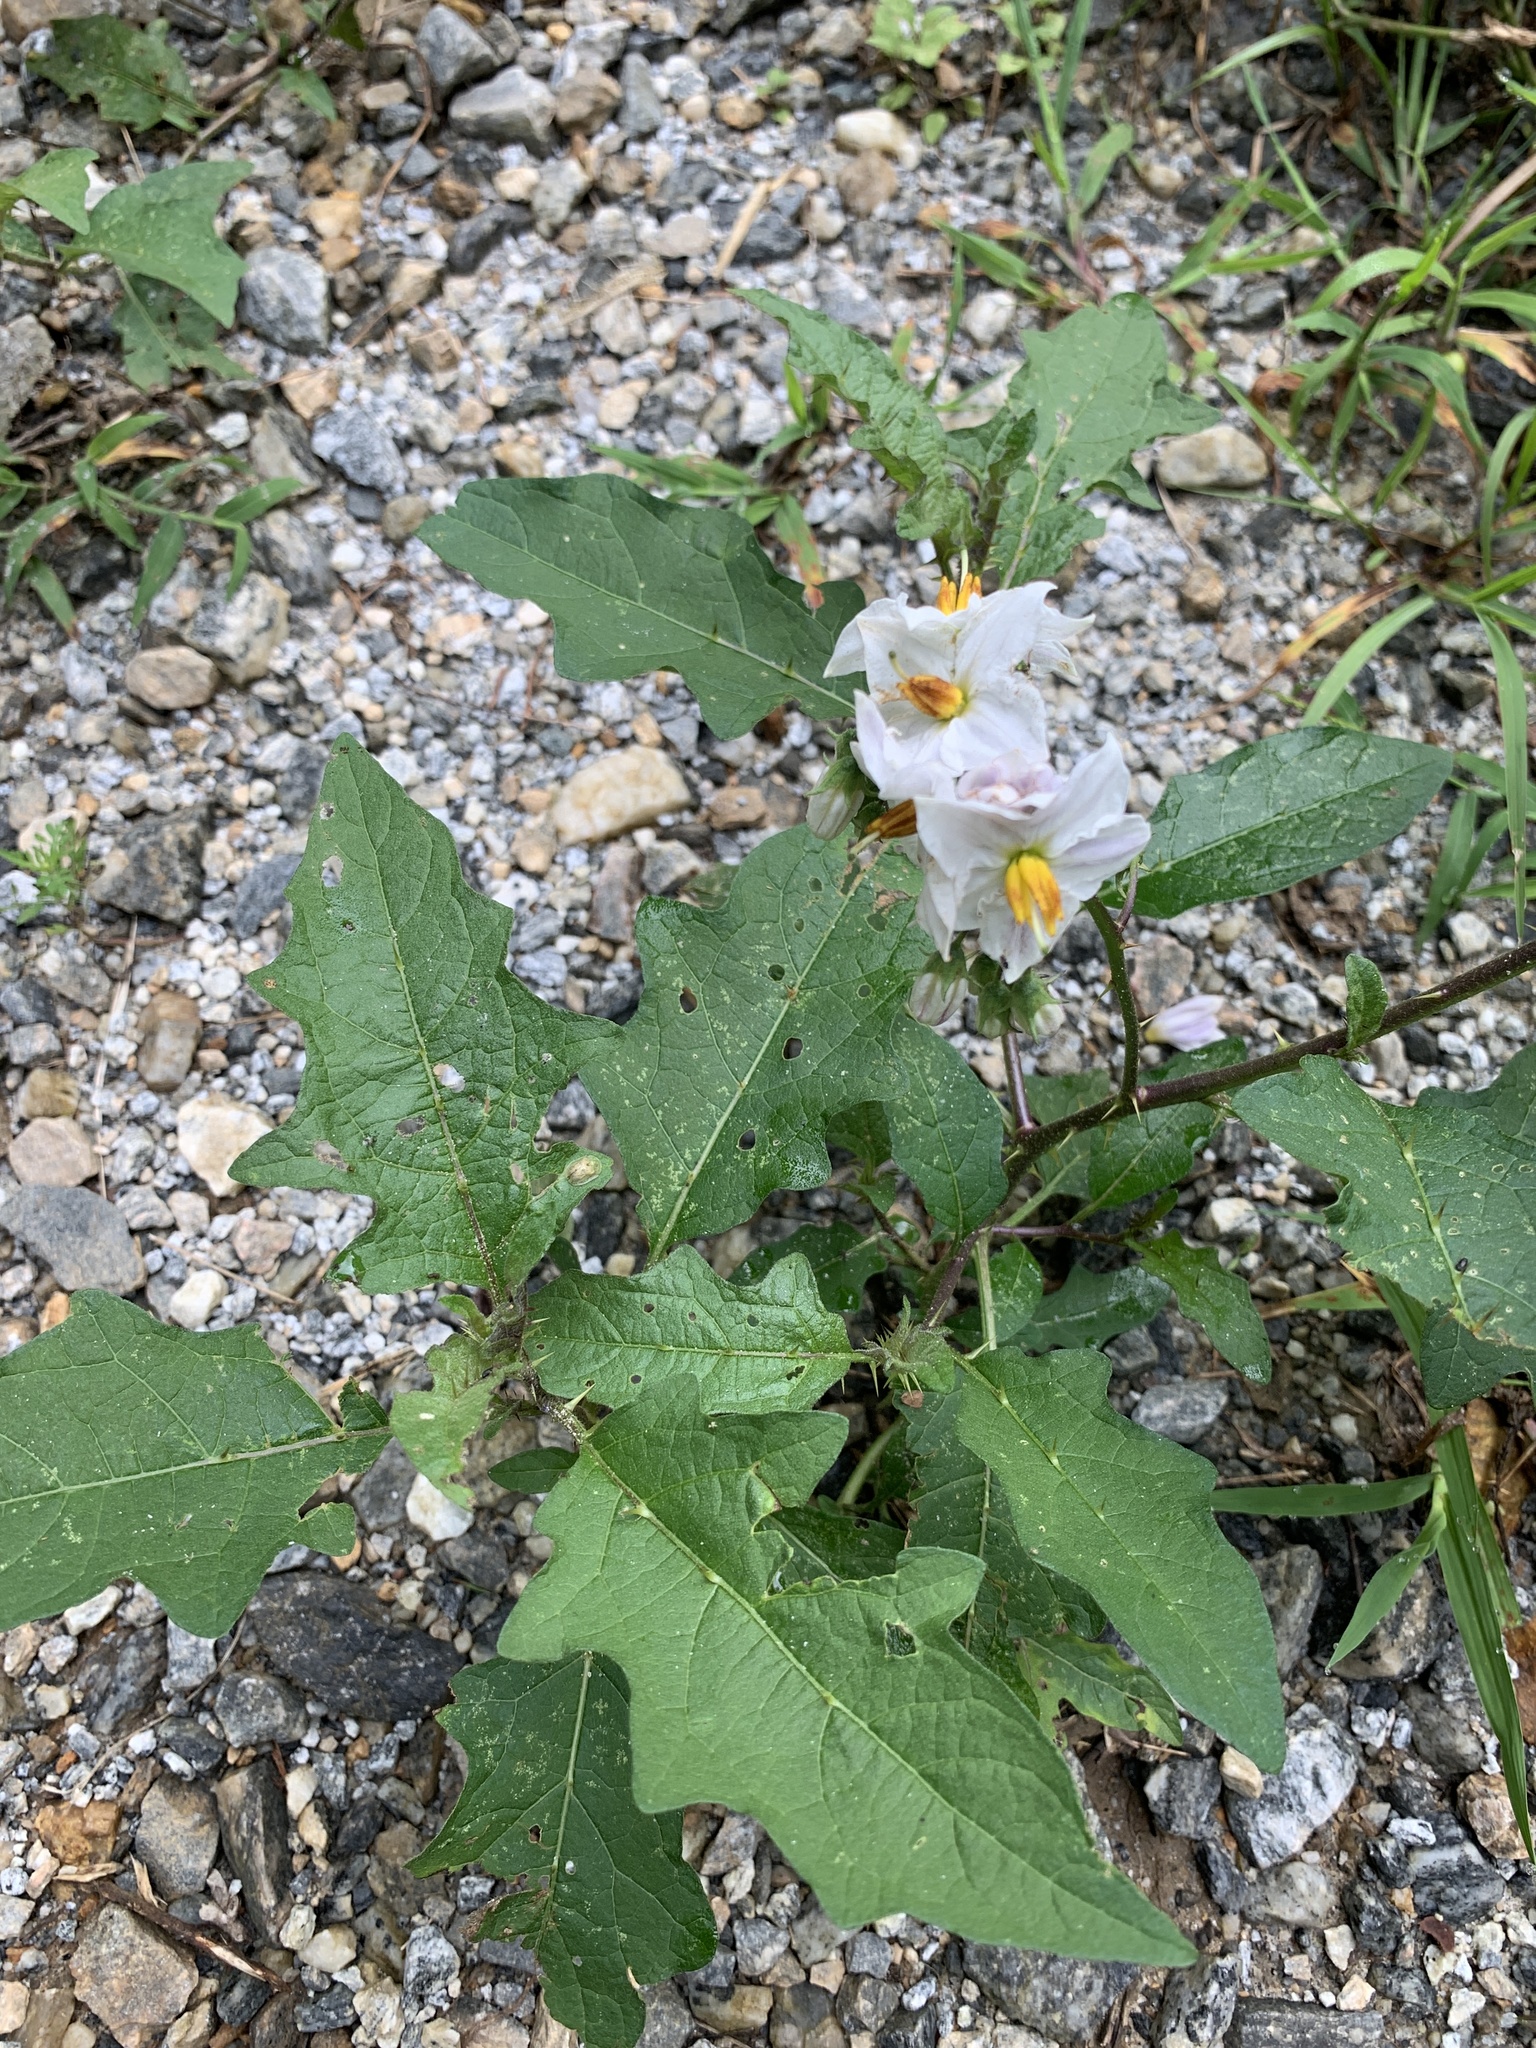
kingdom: Plantae
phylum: Tracheophyta
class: Magnoliopsida
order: Solanales
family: Solanaceae
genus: Solanum
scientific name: Solanum carolinense
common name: Horse-nettle
